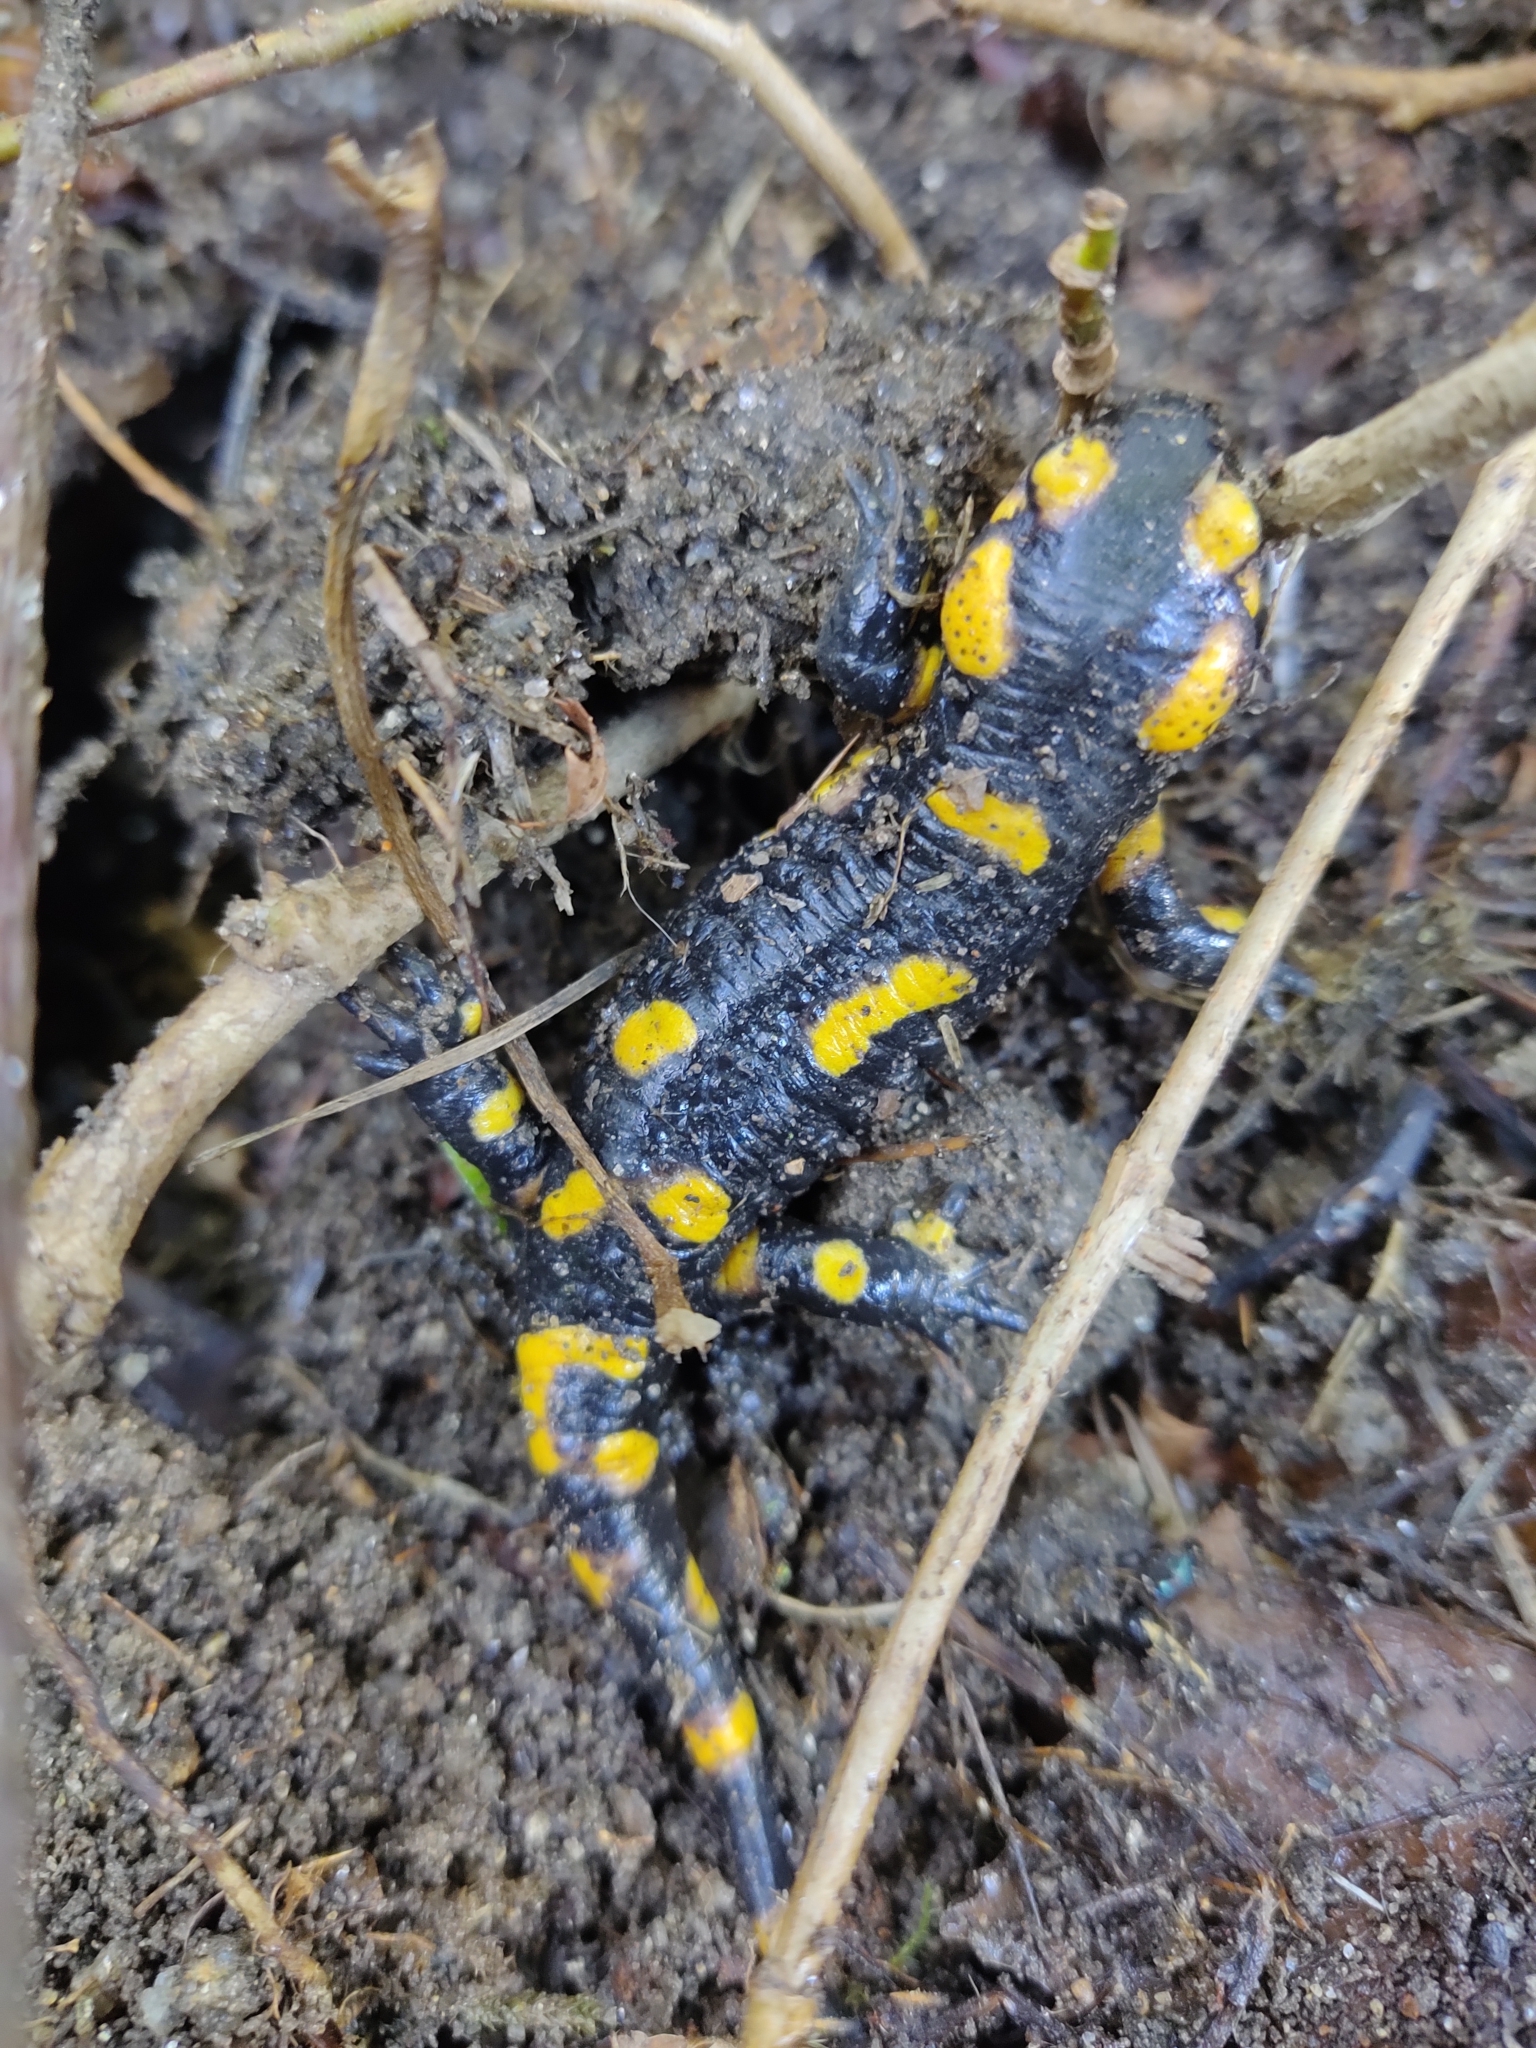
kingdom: Animalia
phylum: Chordata
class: Amphibia
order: Caudata
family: Salamandridae
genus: Salamandra
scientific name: Salamandra salamandra
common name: Fire salamander
